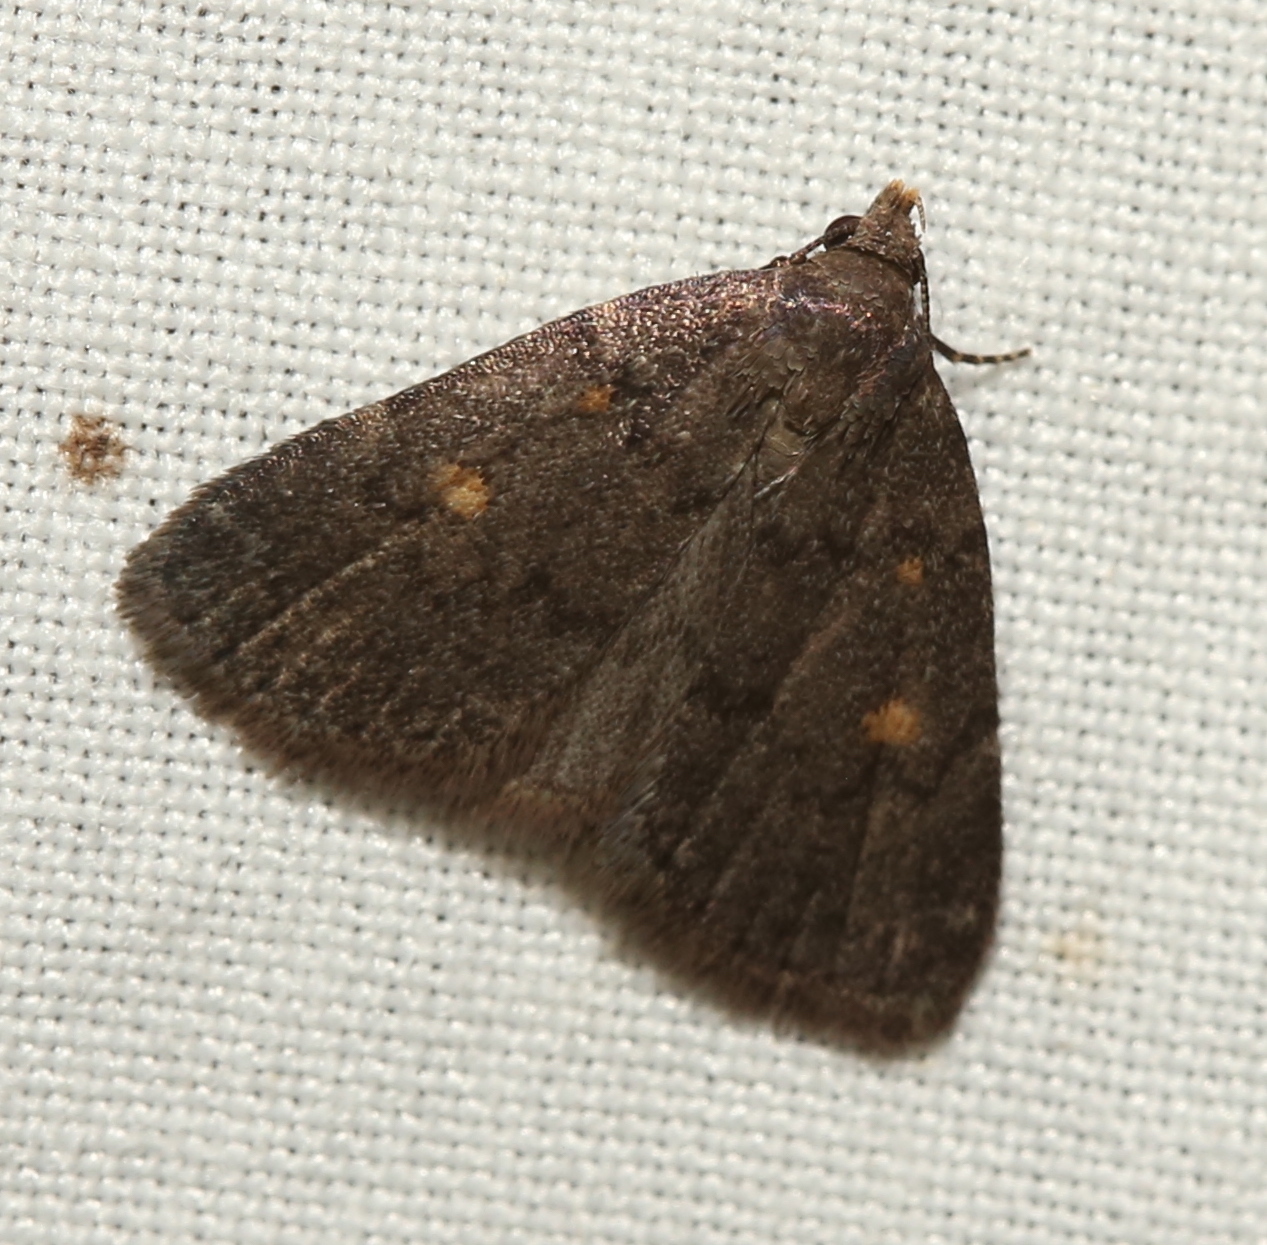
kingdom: Animalia
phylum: Arthropoda
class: Insecta
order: Lepidoptera
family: Erebidae
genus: Idia
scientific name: Idia diminuendis
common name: Orange-spotted idia moth
